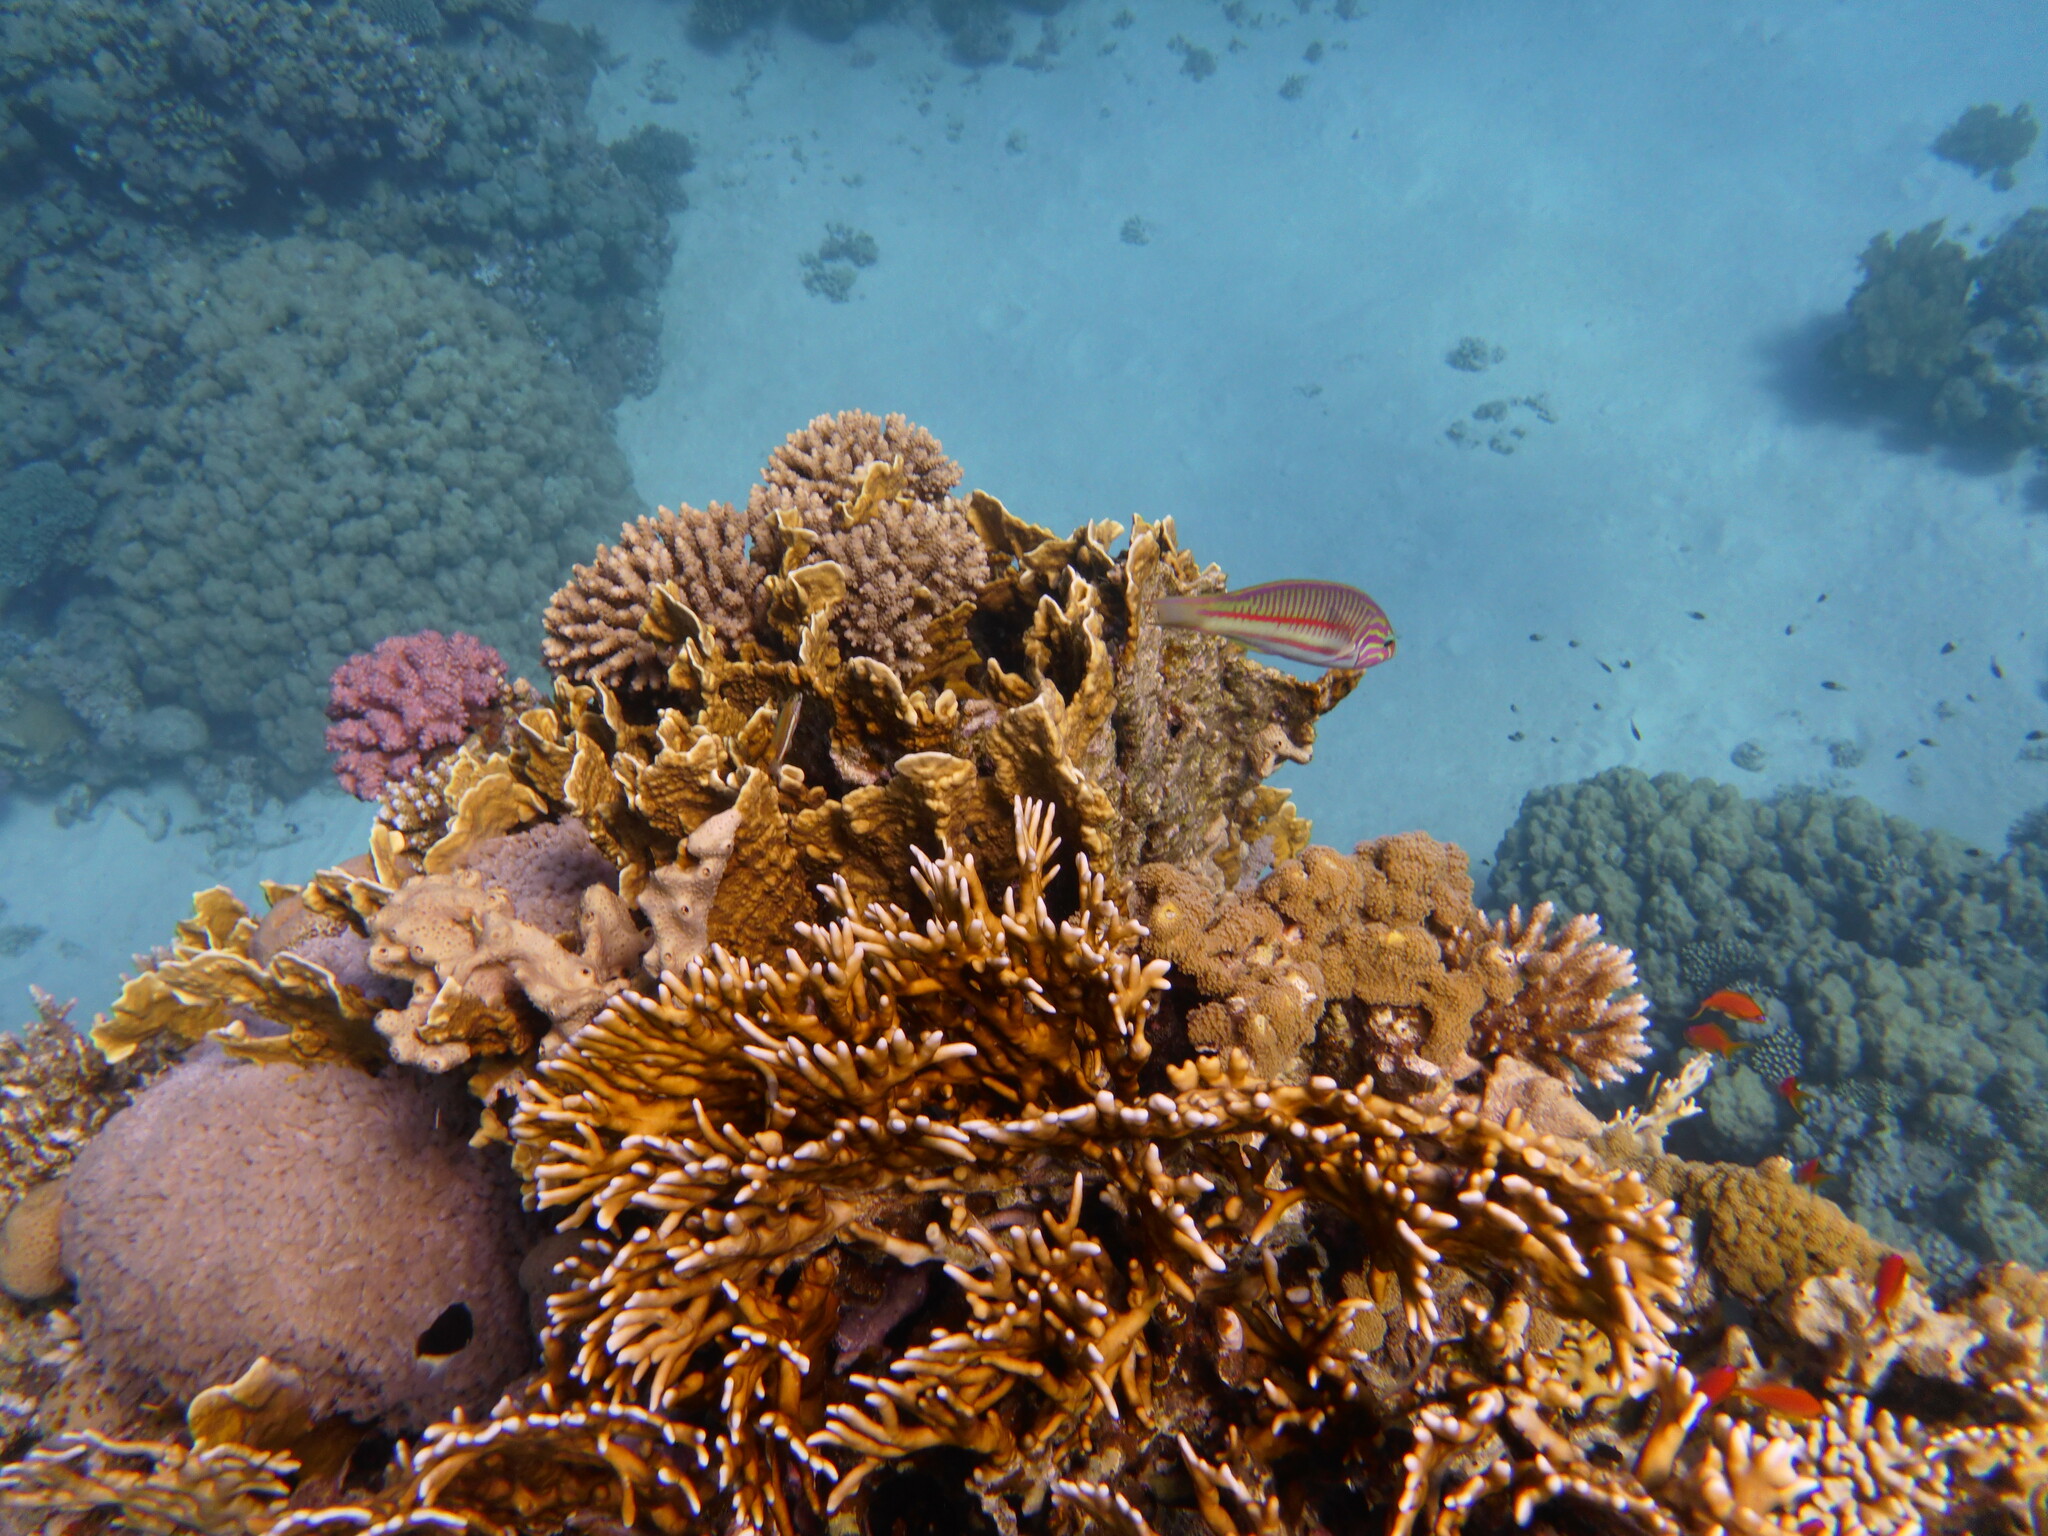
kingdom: Animalia
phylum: Chordata
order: Perciformes
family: Labridae
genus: Thalassoma
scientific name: Thalassoma rueppellii
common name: Klunzinger's wrasse
